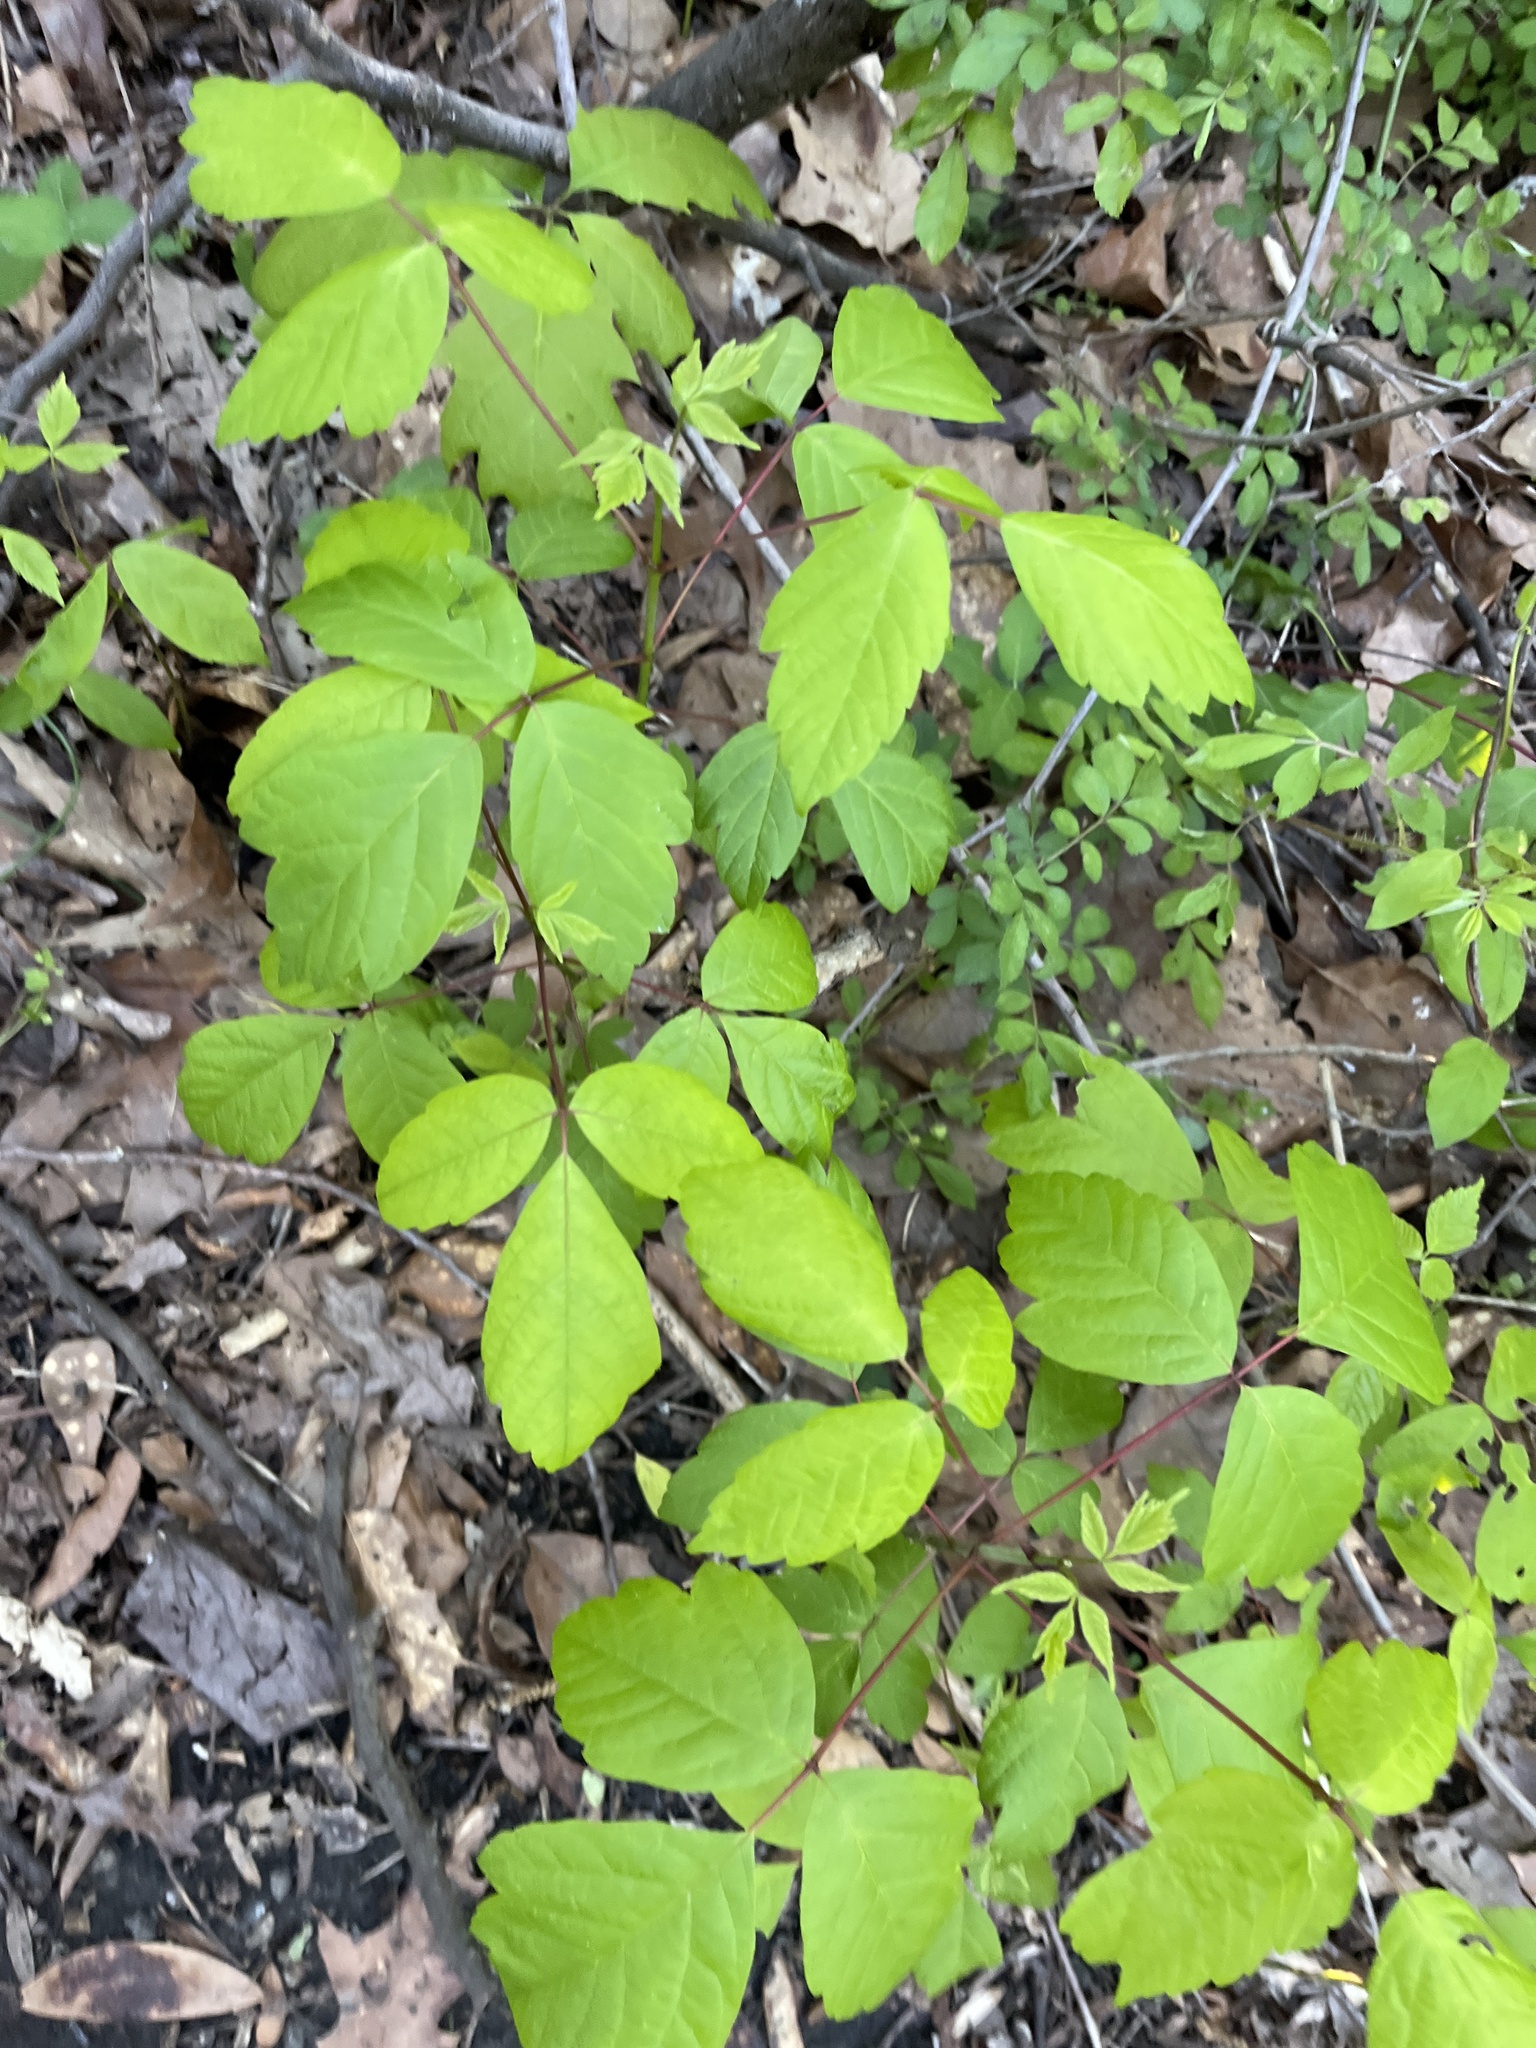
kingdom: Plantae
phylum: Tracheophyta
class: Magnoliopsida
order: Sapindales
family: Sapindaceae
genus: Acer
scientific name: Acer negundo
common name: Ashleaf maple
